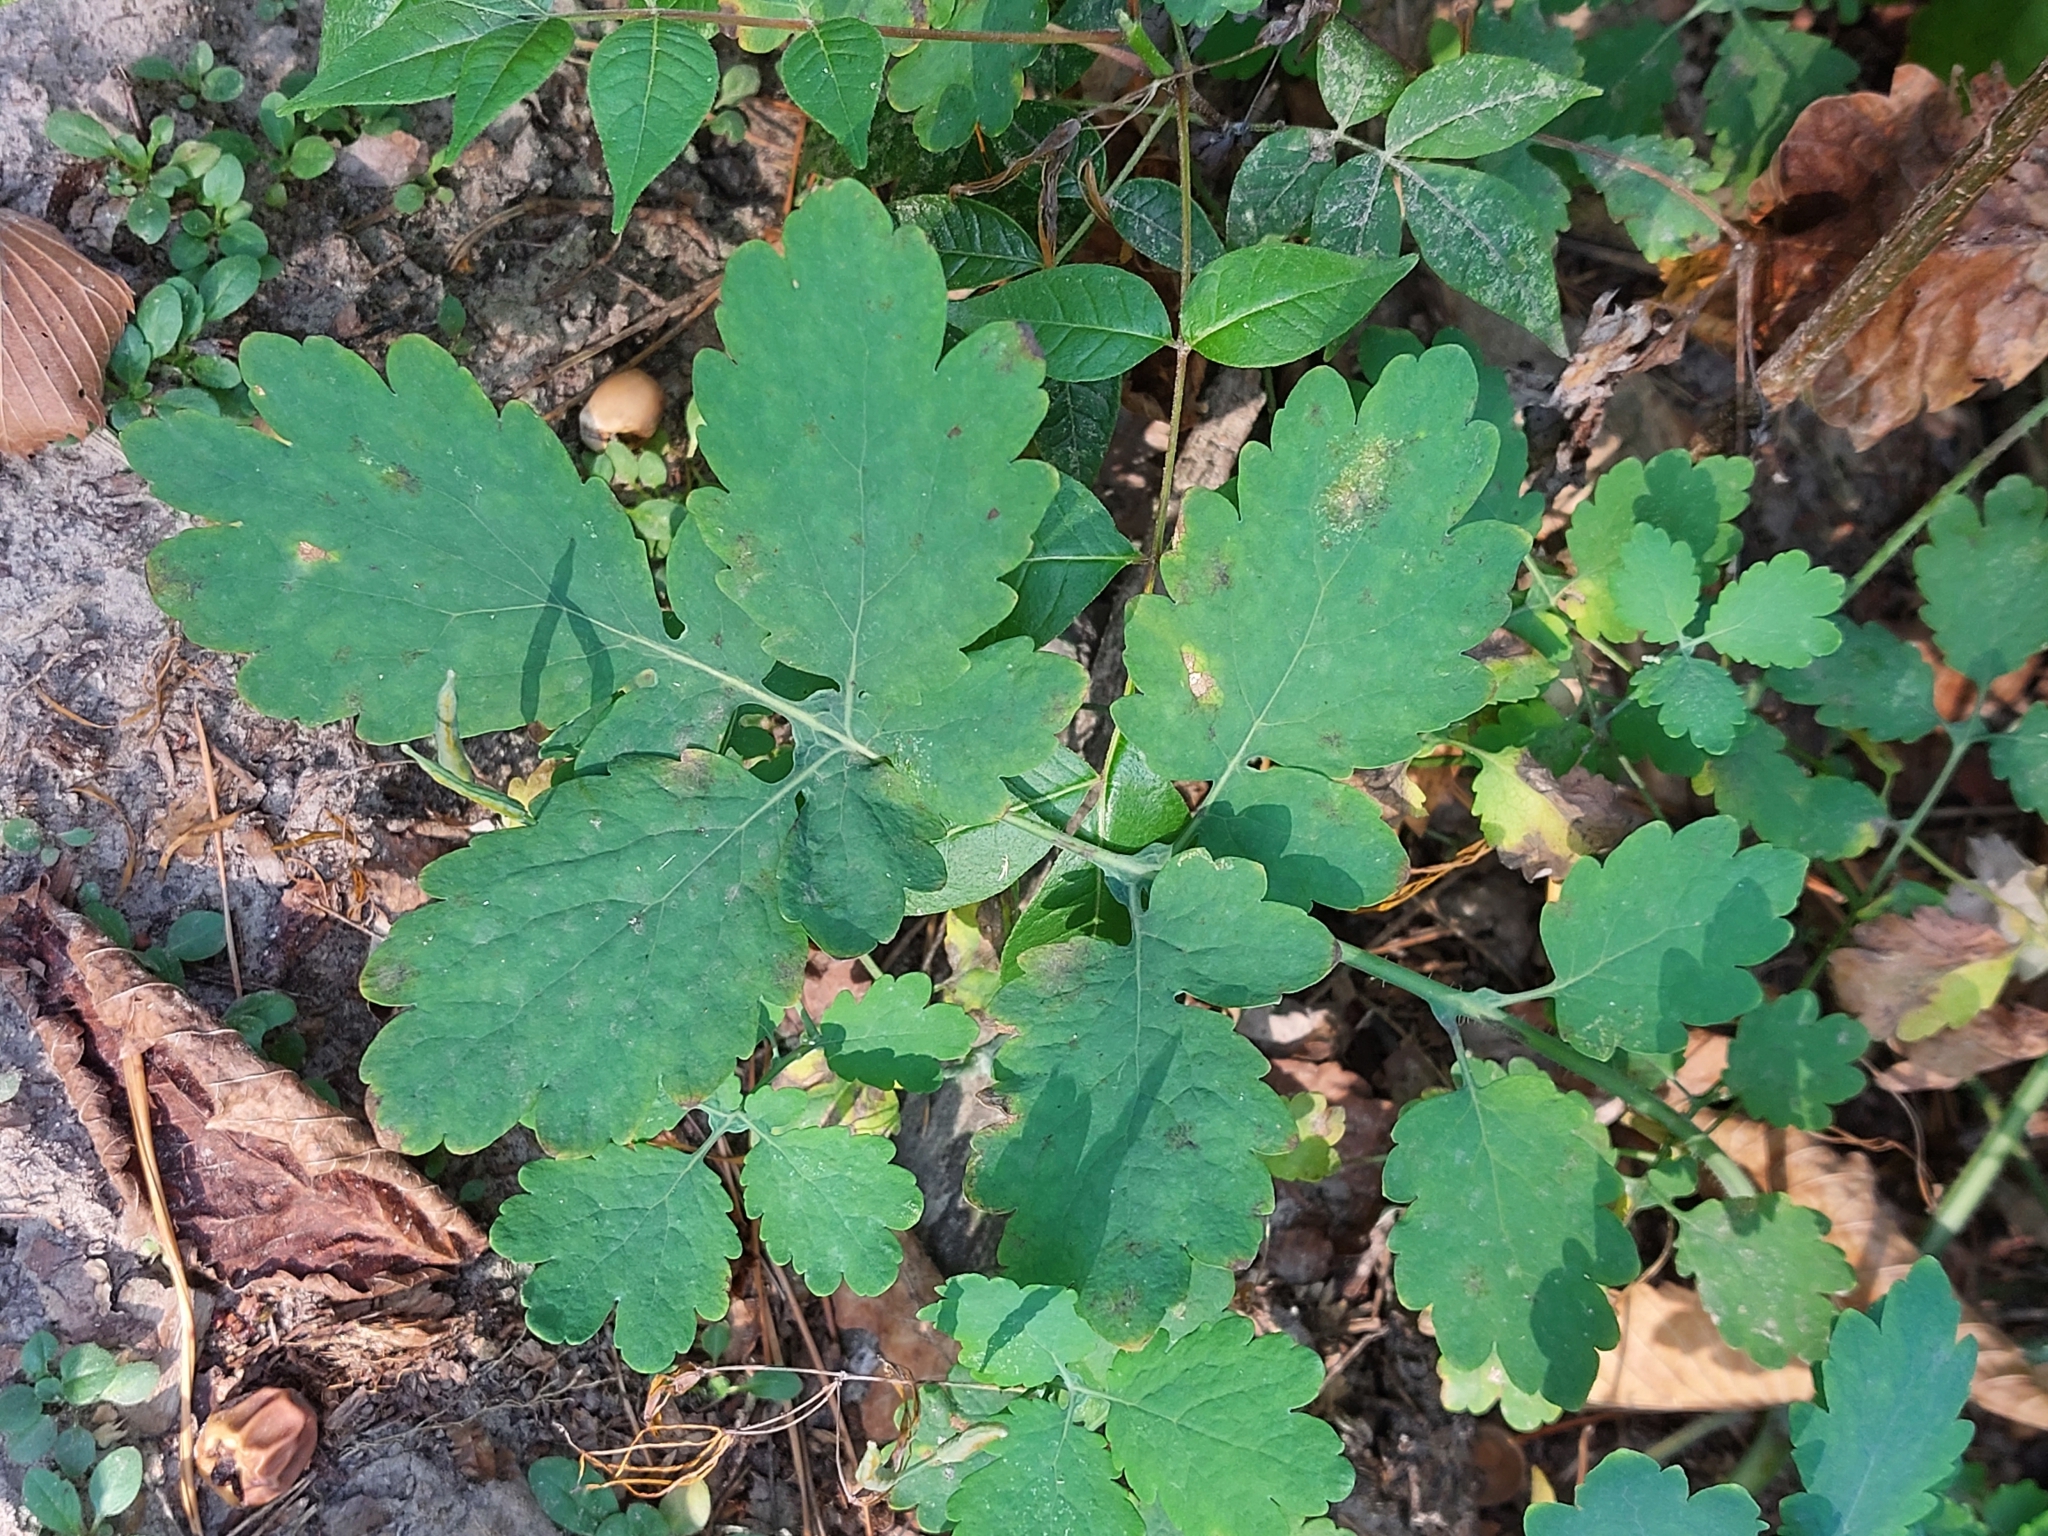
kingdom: Plantae
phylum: Tracheophyta
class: Magnoliopsida
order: Ranunculales
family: Papaveraceae
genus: Chelidonium
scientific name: Chelidonium majus
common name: Greater celandine
